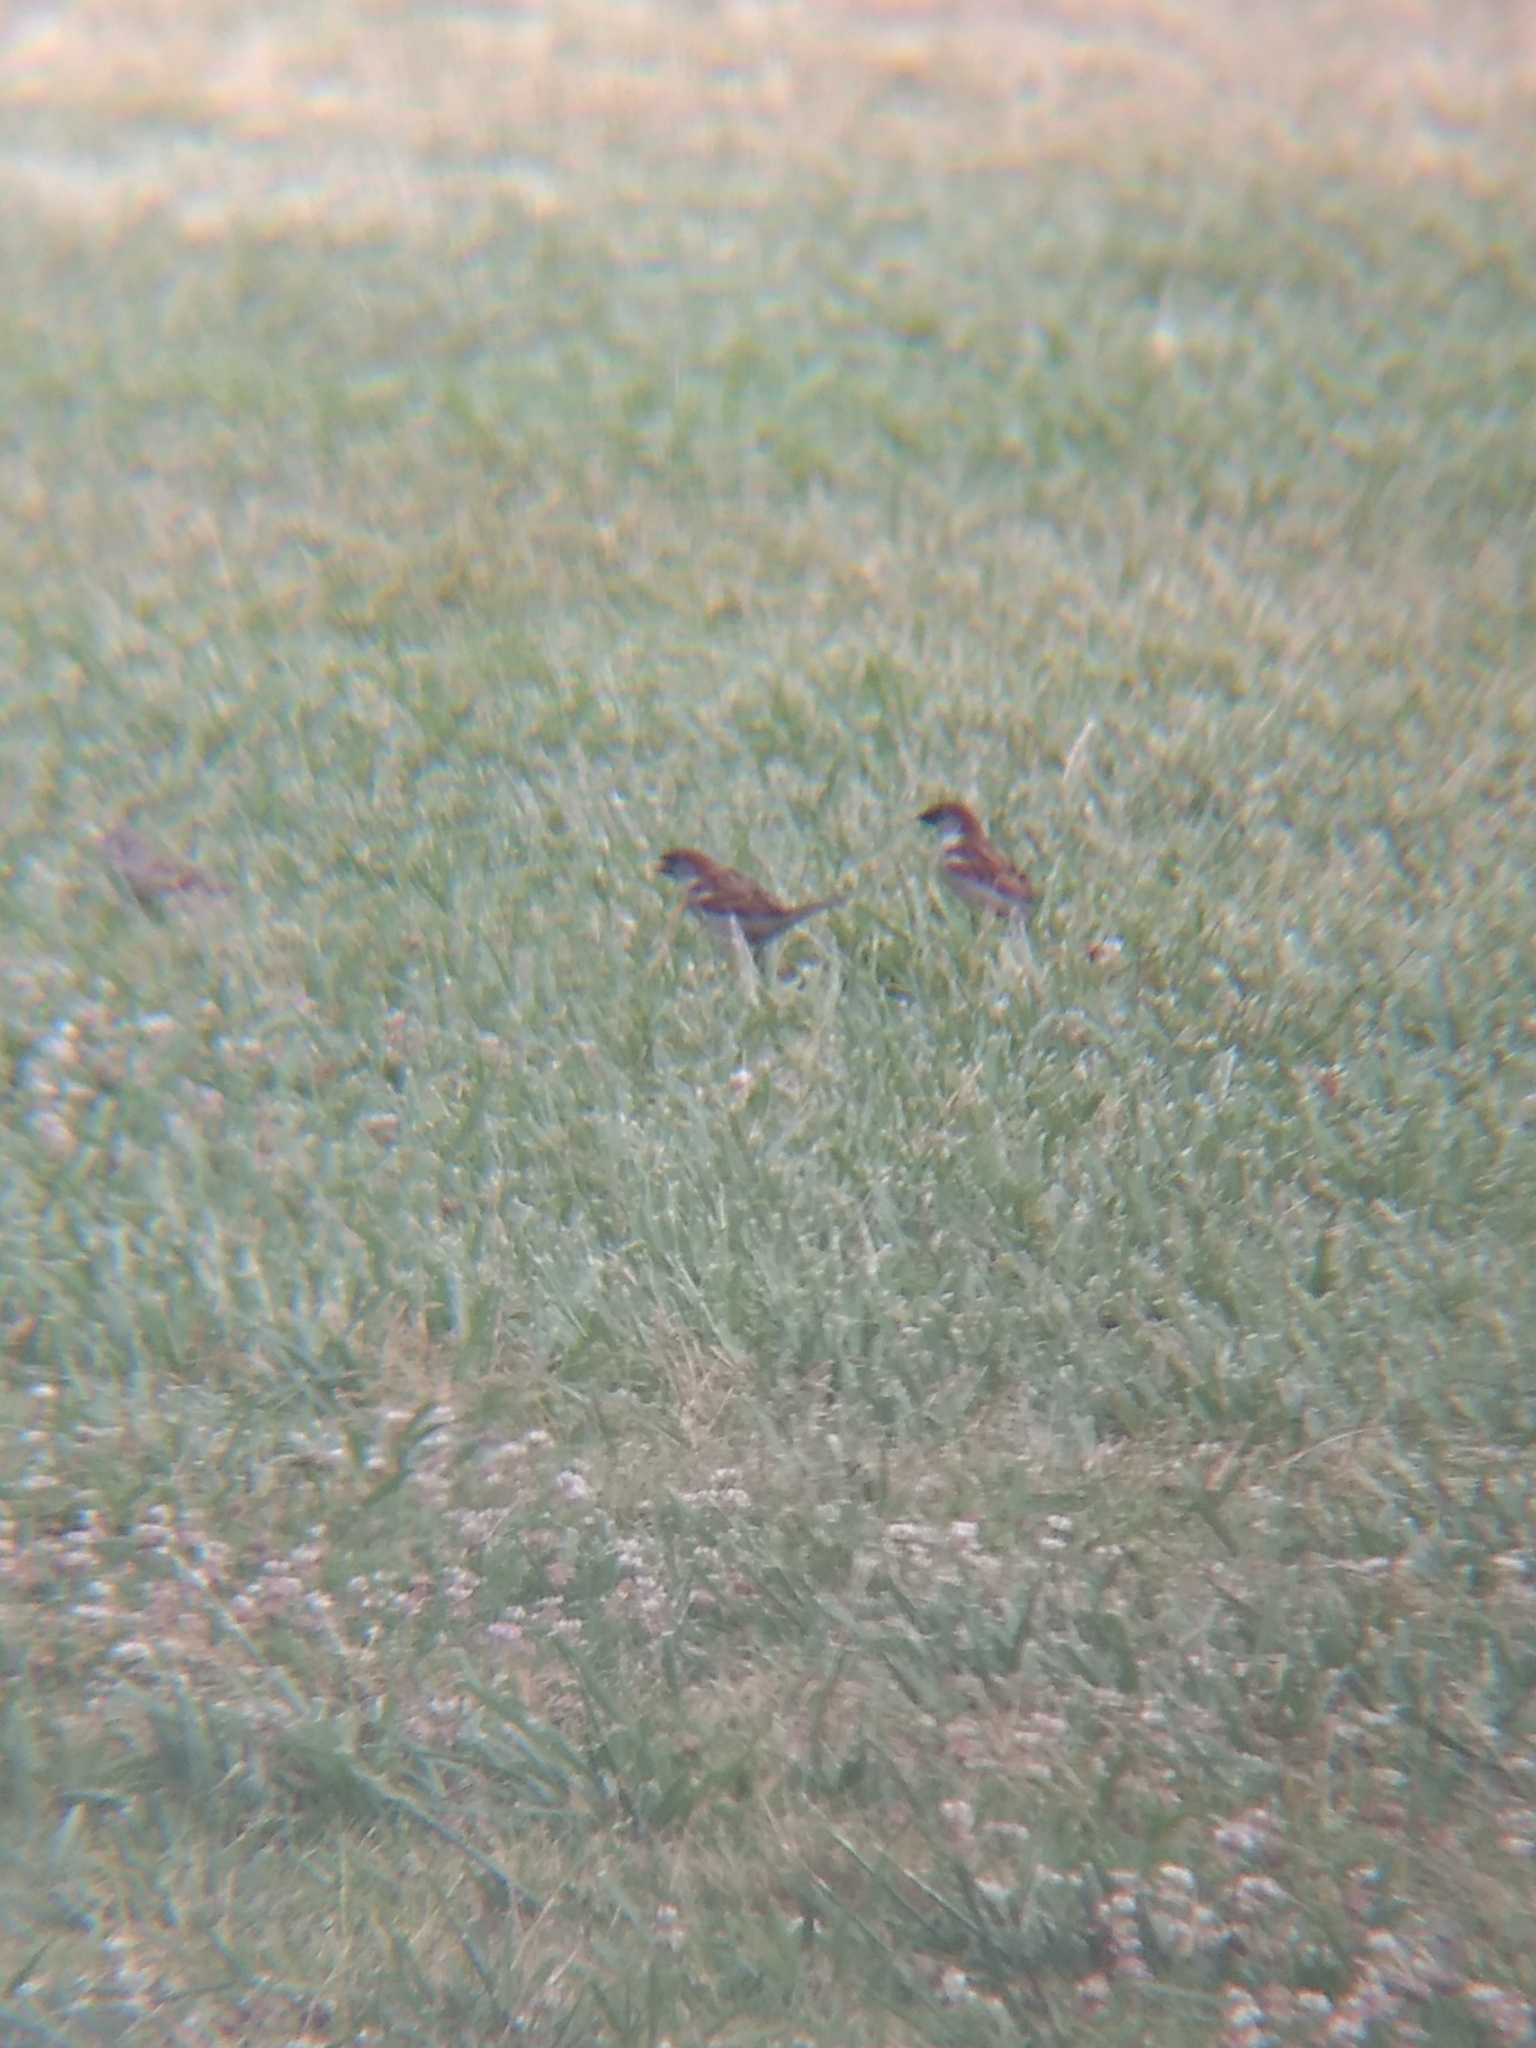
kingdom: Animalia
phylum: Chordata
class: Aves
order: Passeriformes
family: Passeridae
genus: Passer
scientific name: Passer domesticus
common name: House sparrow
